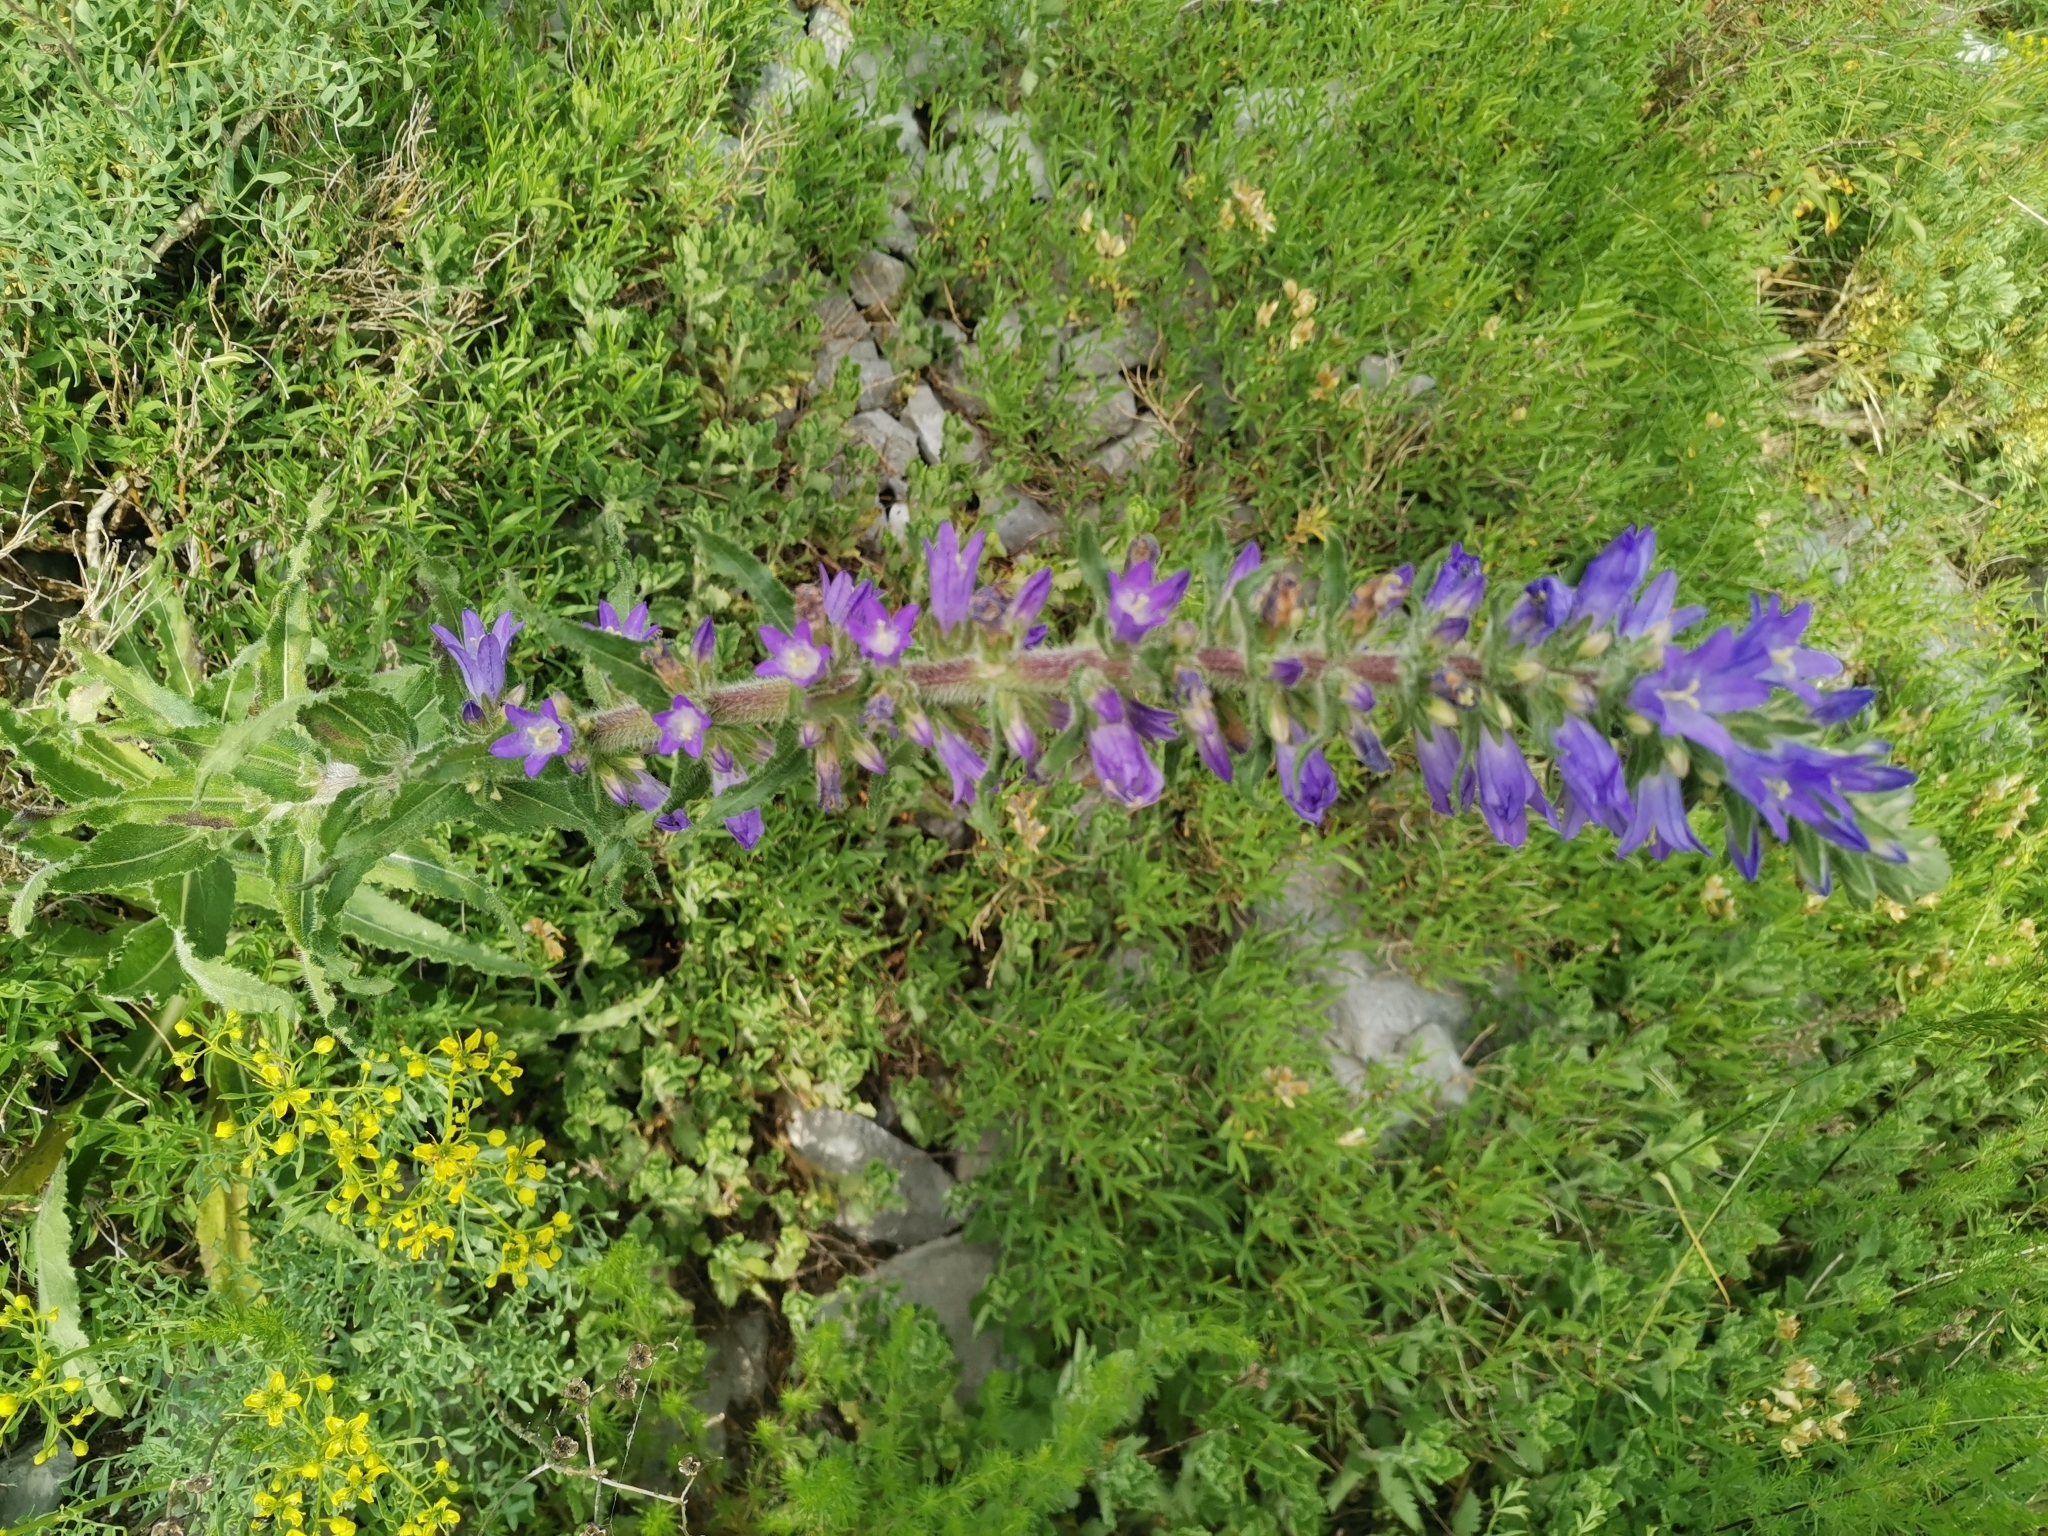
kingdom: Plantae
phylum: Tracheophyta
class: Magnoliopsida
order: Asterales
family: Campanulaceae
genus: Campanula
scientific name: Campanula spicata
